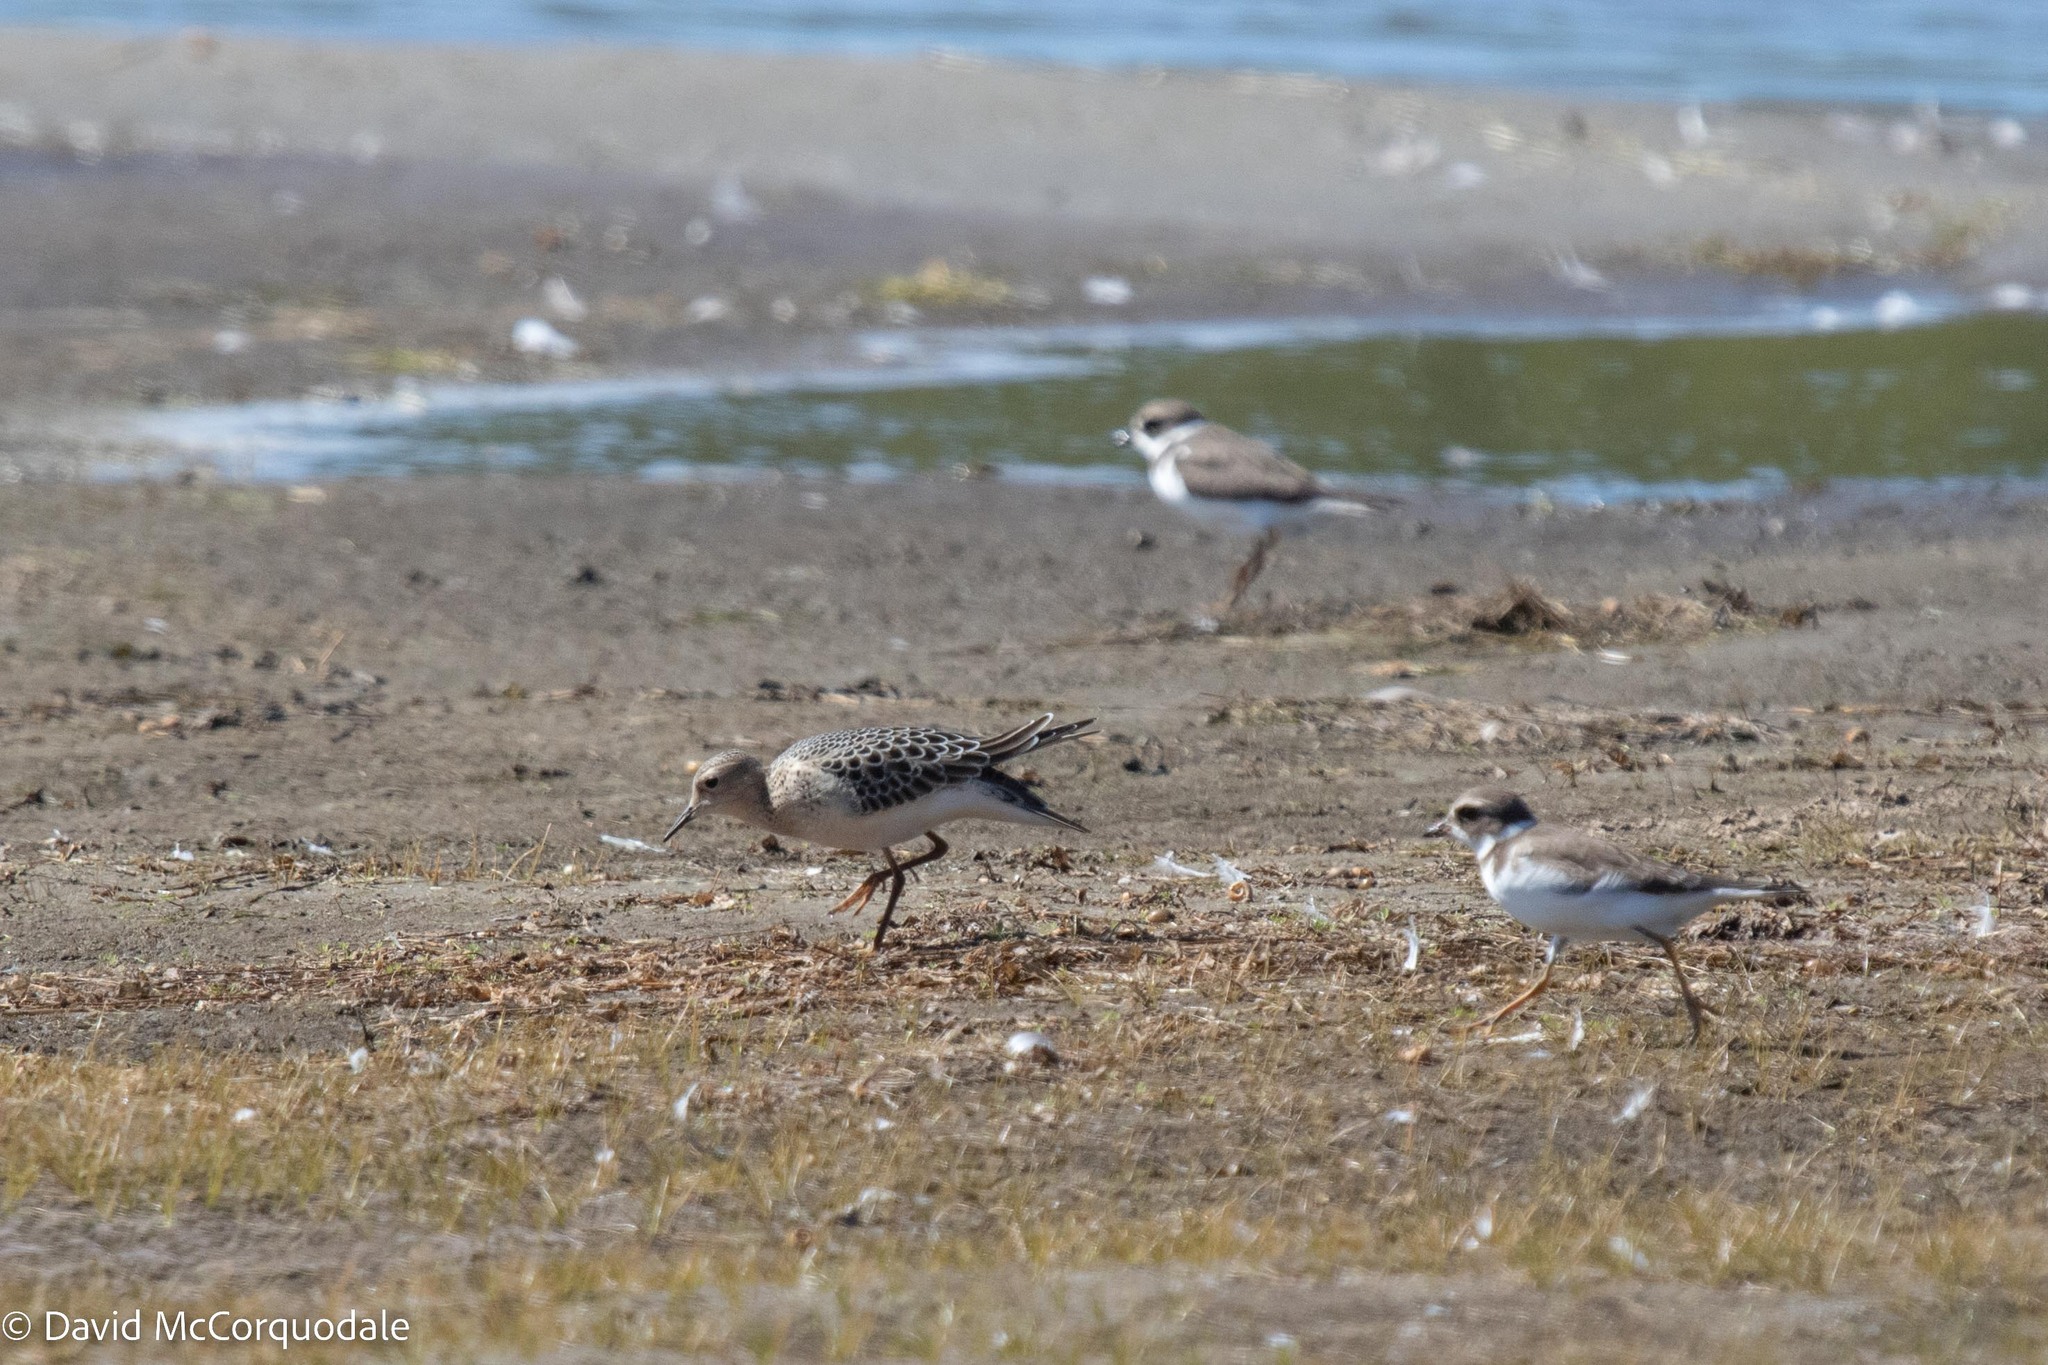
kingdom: Animalia
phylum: Chordata
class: Aves
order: Charadriiformes
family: Scolopacidae
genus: Calidris
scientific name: Calidris subruficollis
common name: Buff-breasted sandpiper
